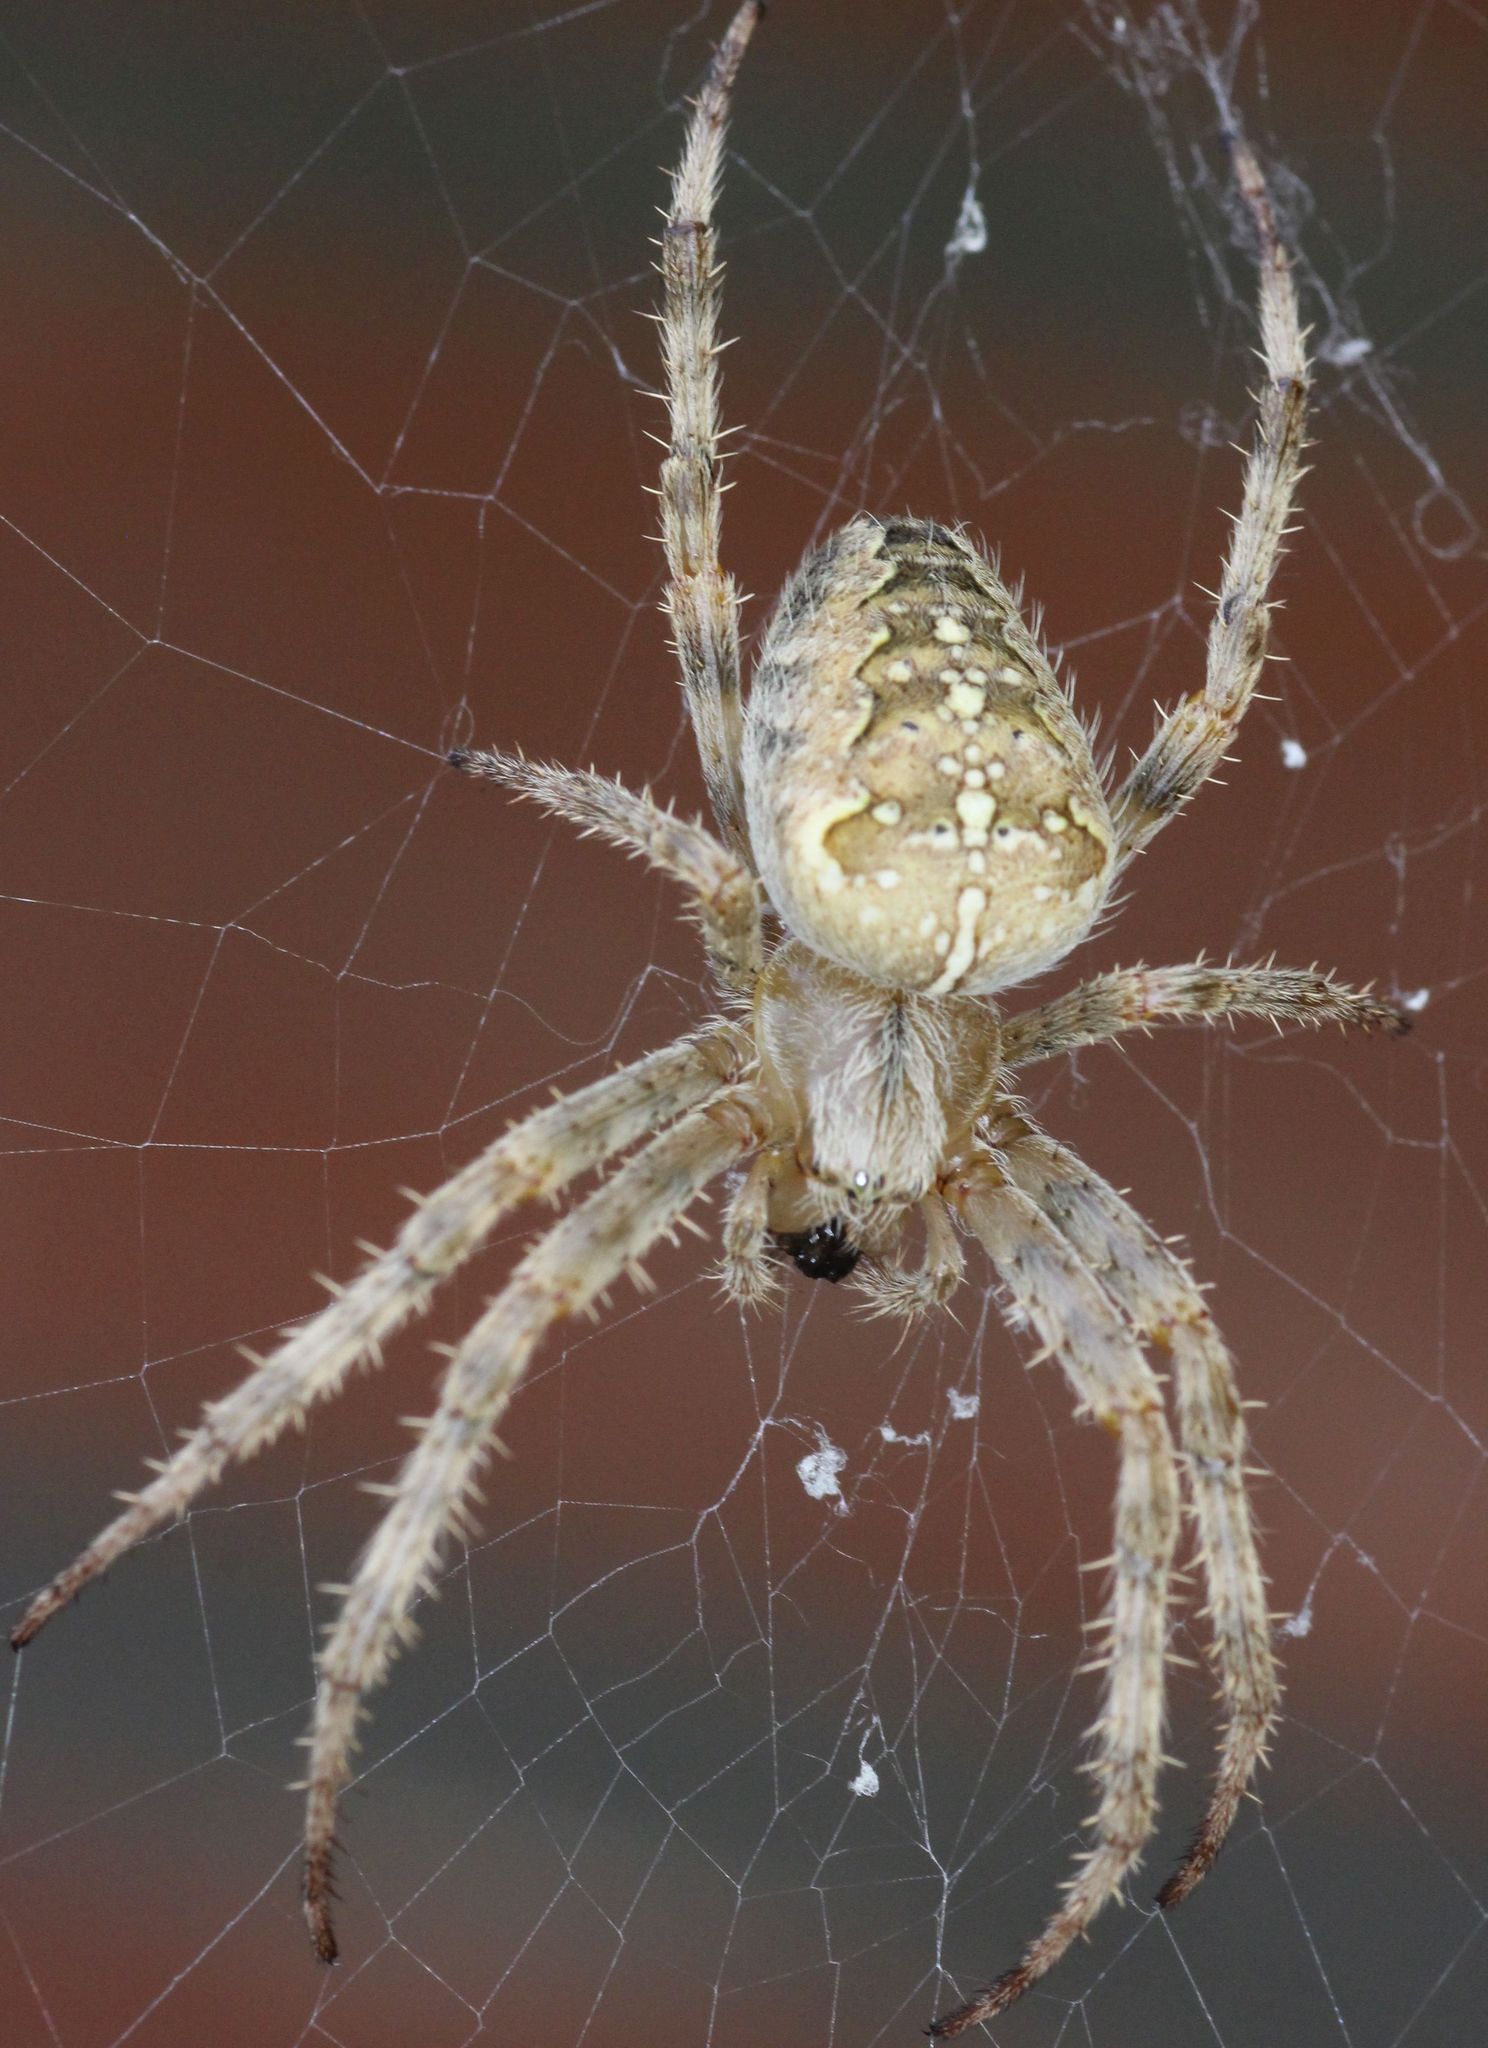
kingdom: Animalia
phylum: Arthropoda
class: Arachnida
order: Araneae
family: Araneidae
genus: Araneus
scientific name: Araneus diadematus
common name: Cross orbweaver
